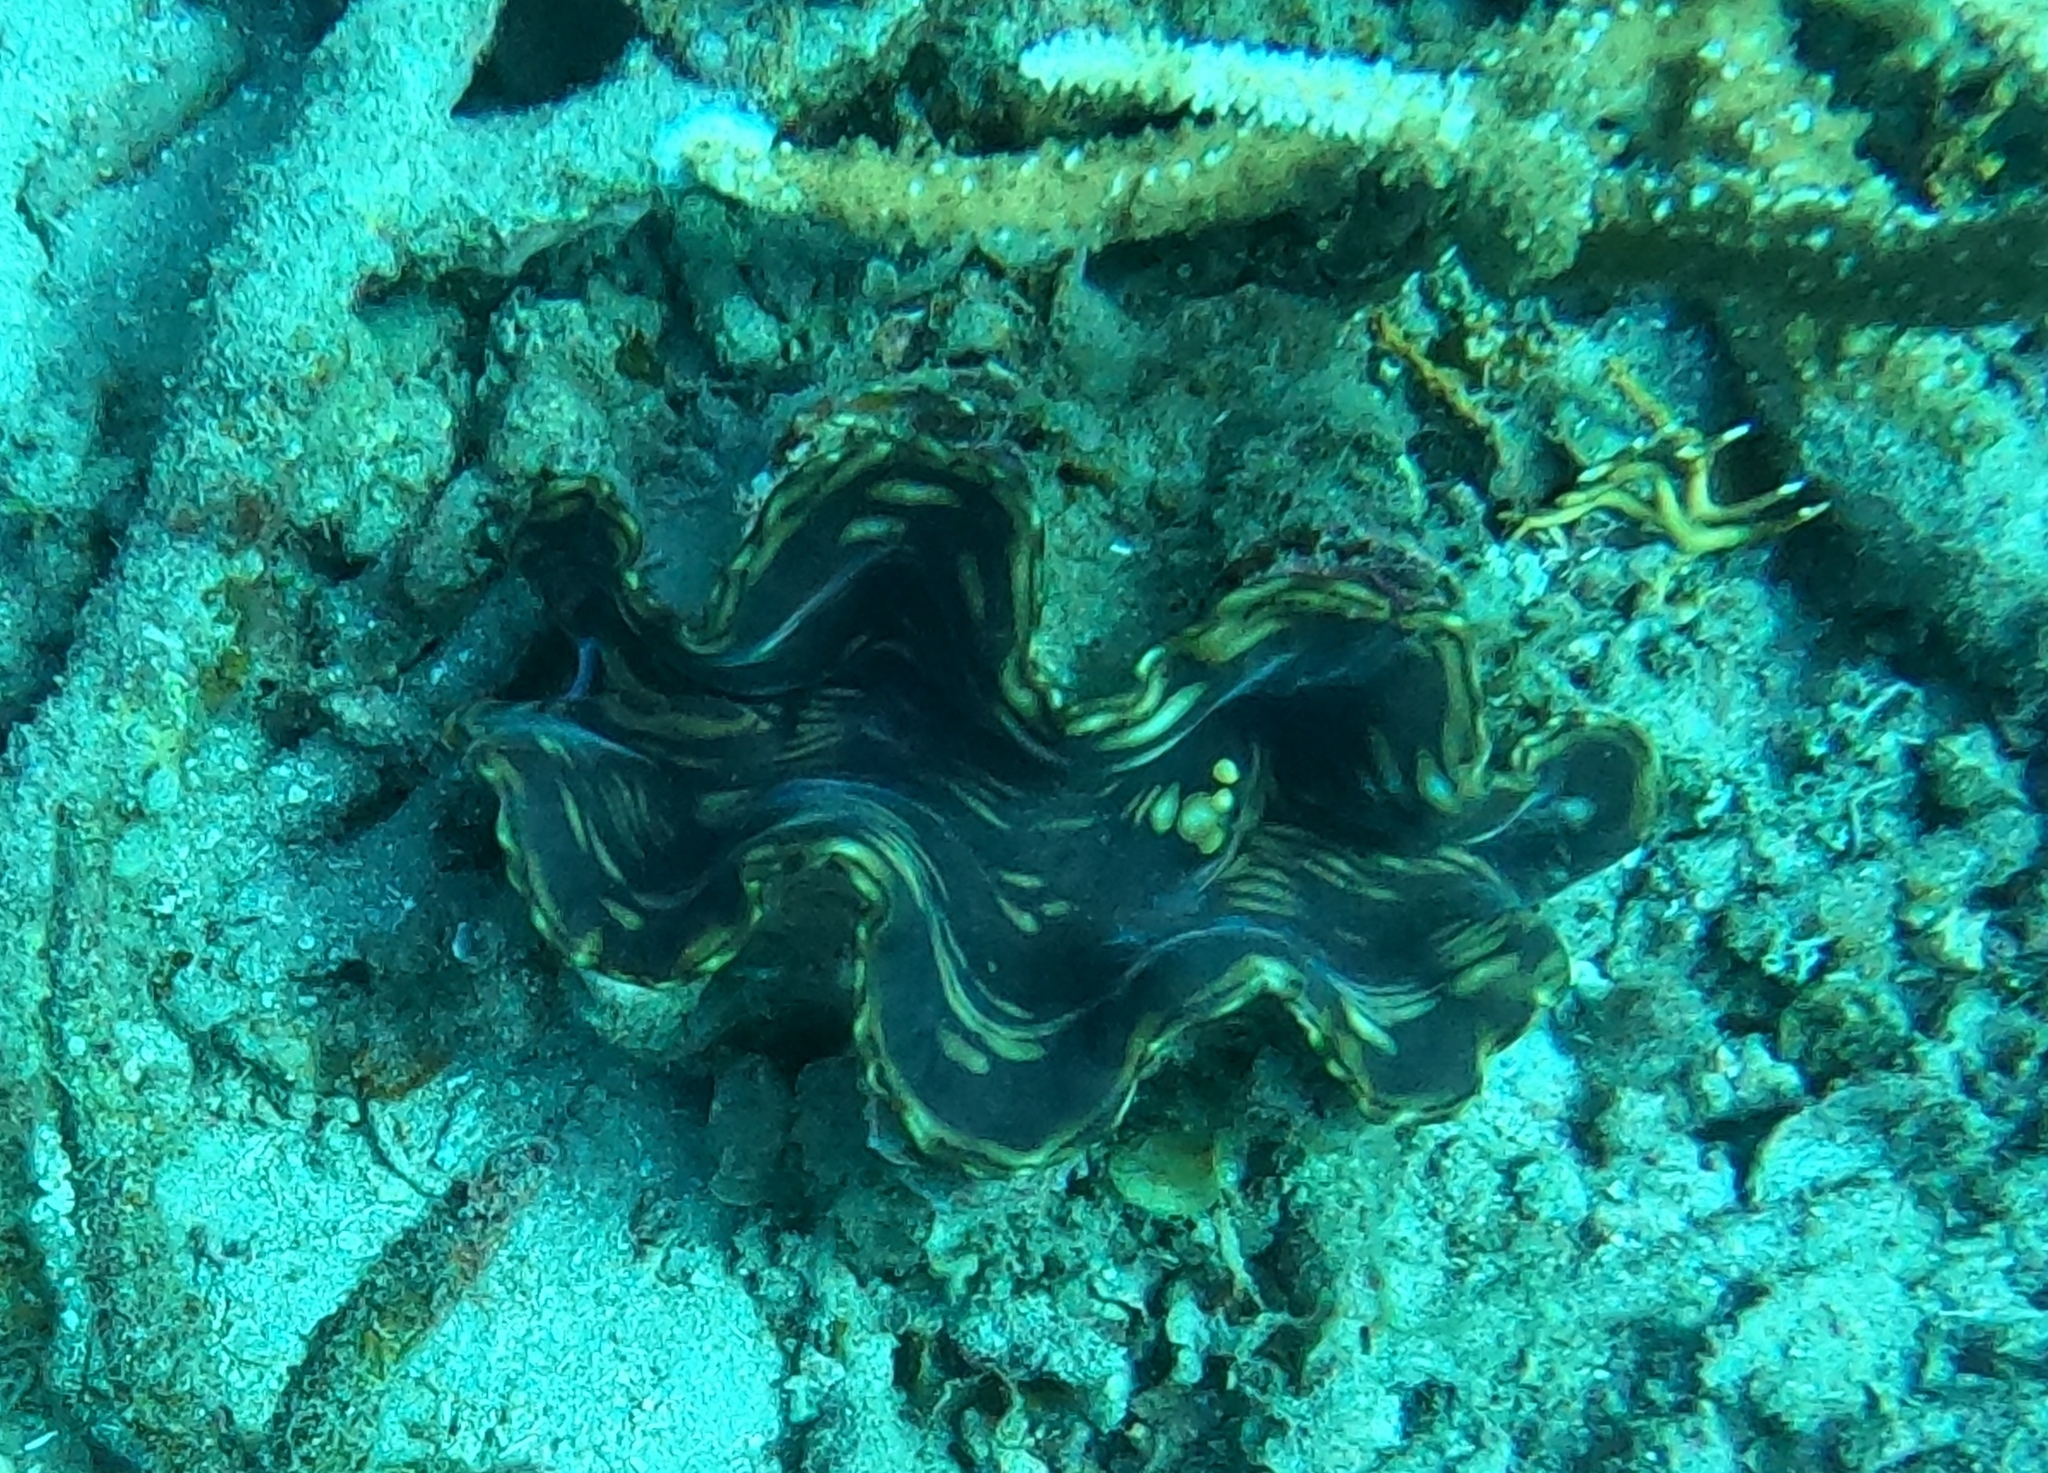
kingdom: Animalia
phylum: Mollusca
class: Bivalvia
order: Cardiida
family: Cardiidae
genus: Tridacna
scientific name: Tridacna squamosa
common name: Fluted clam
